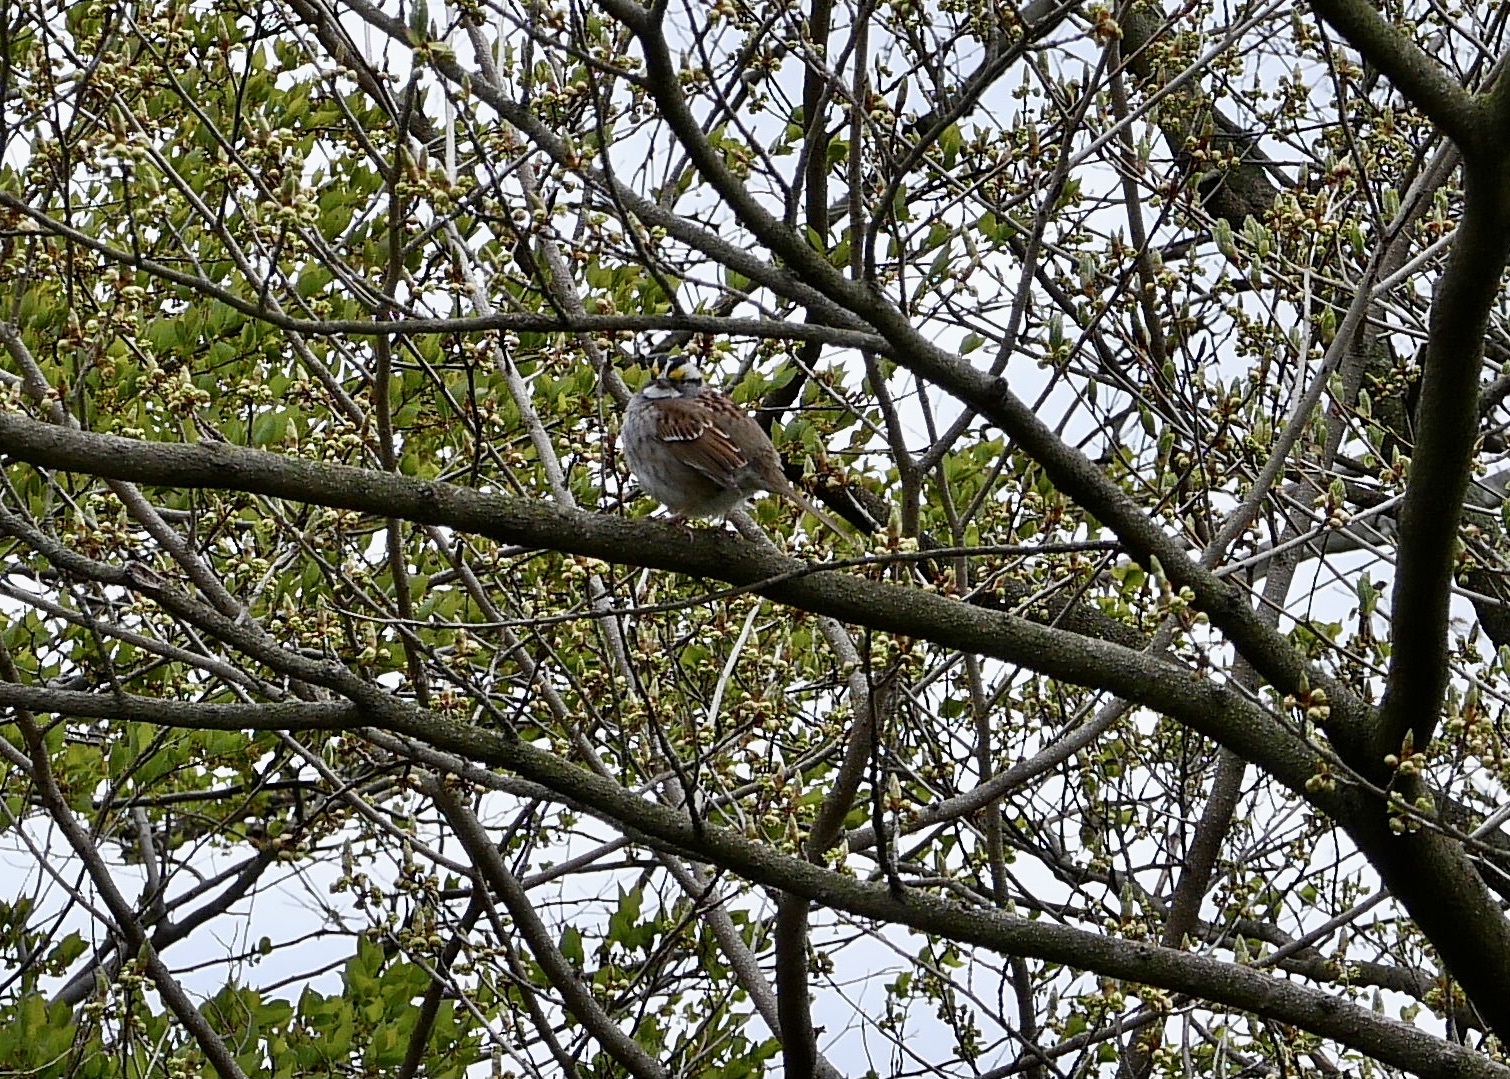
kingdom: Animalia
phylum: Chordata
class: Aves
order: Passeriformes
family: Passerellidae
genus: Zonotrichia
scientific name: Zonotrichia albicollis
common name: White-throated sparrow
